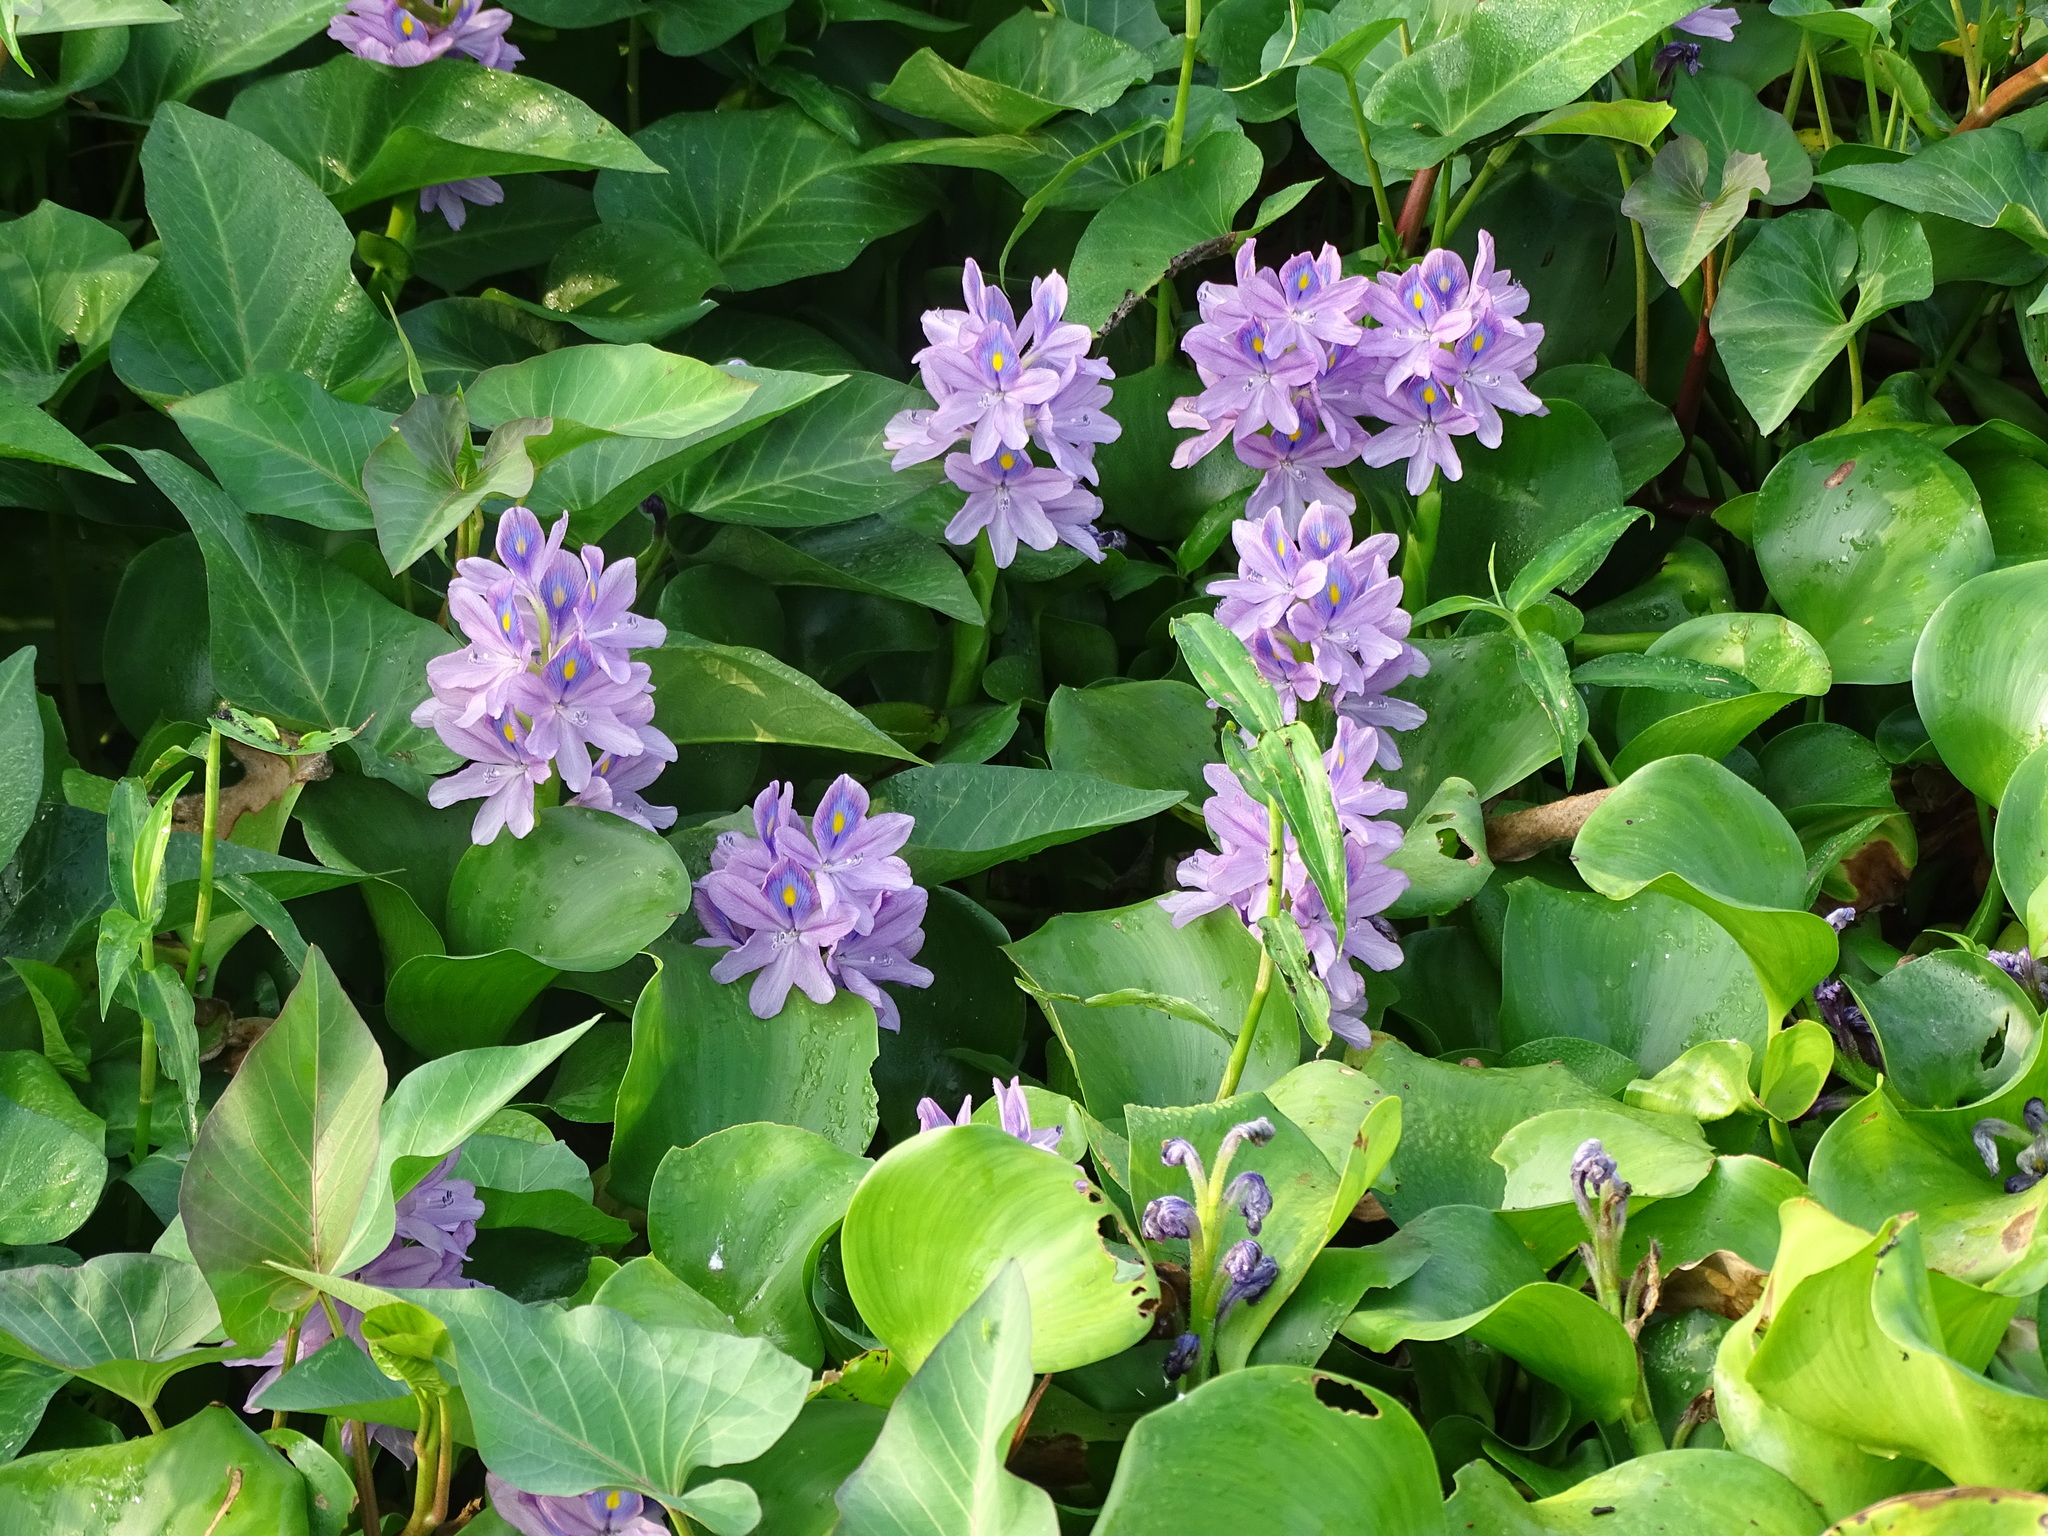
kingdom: Plantae
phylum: Tracheophyta
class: Liliopsida
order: Commelinales
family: Pontederiaceae
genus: Pontederia
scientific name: Pontederia crassipes
